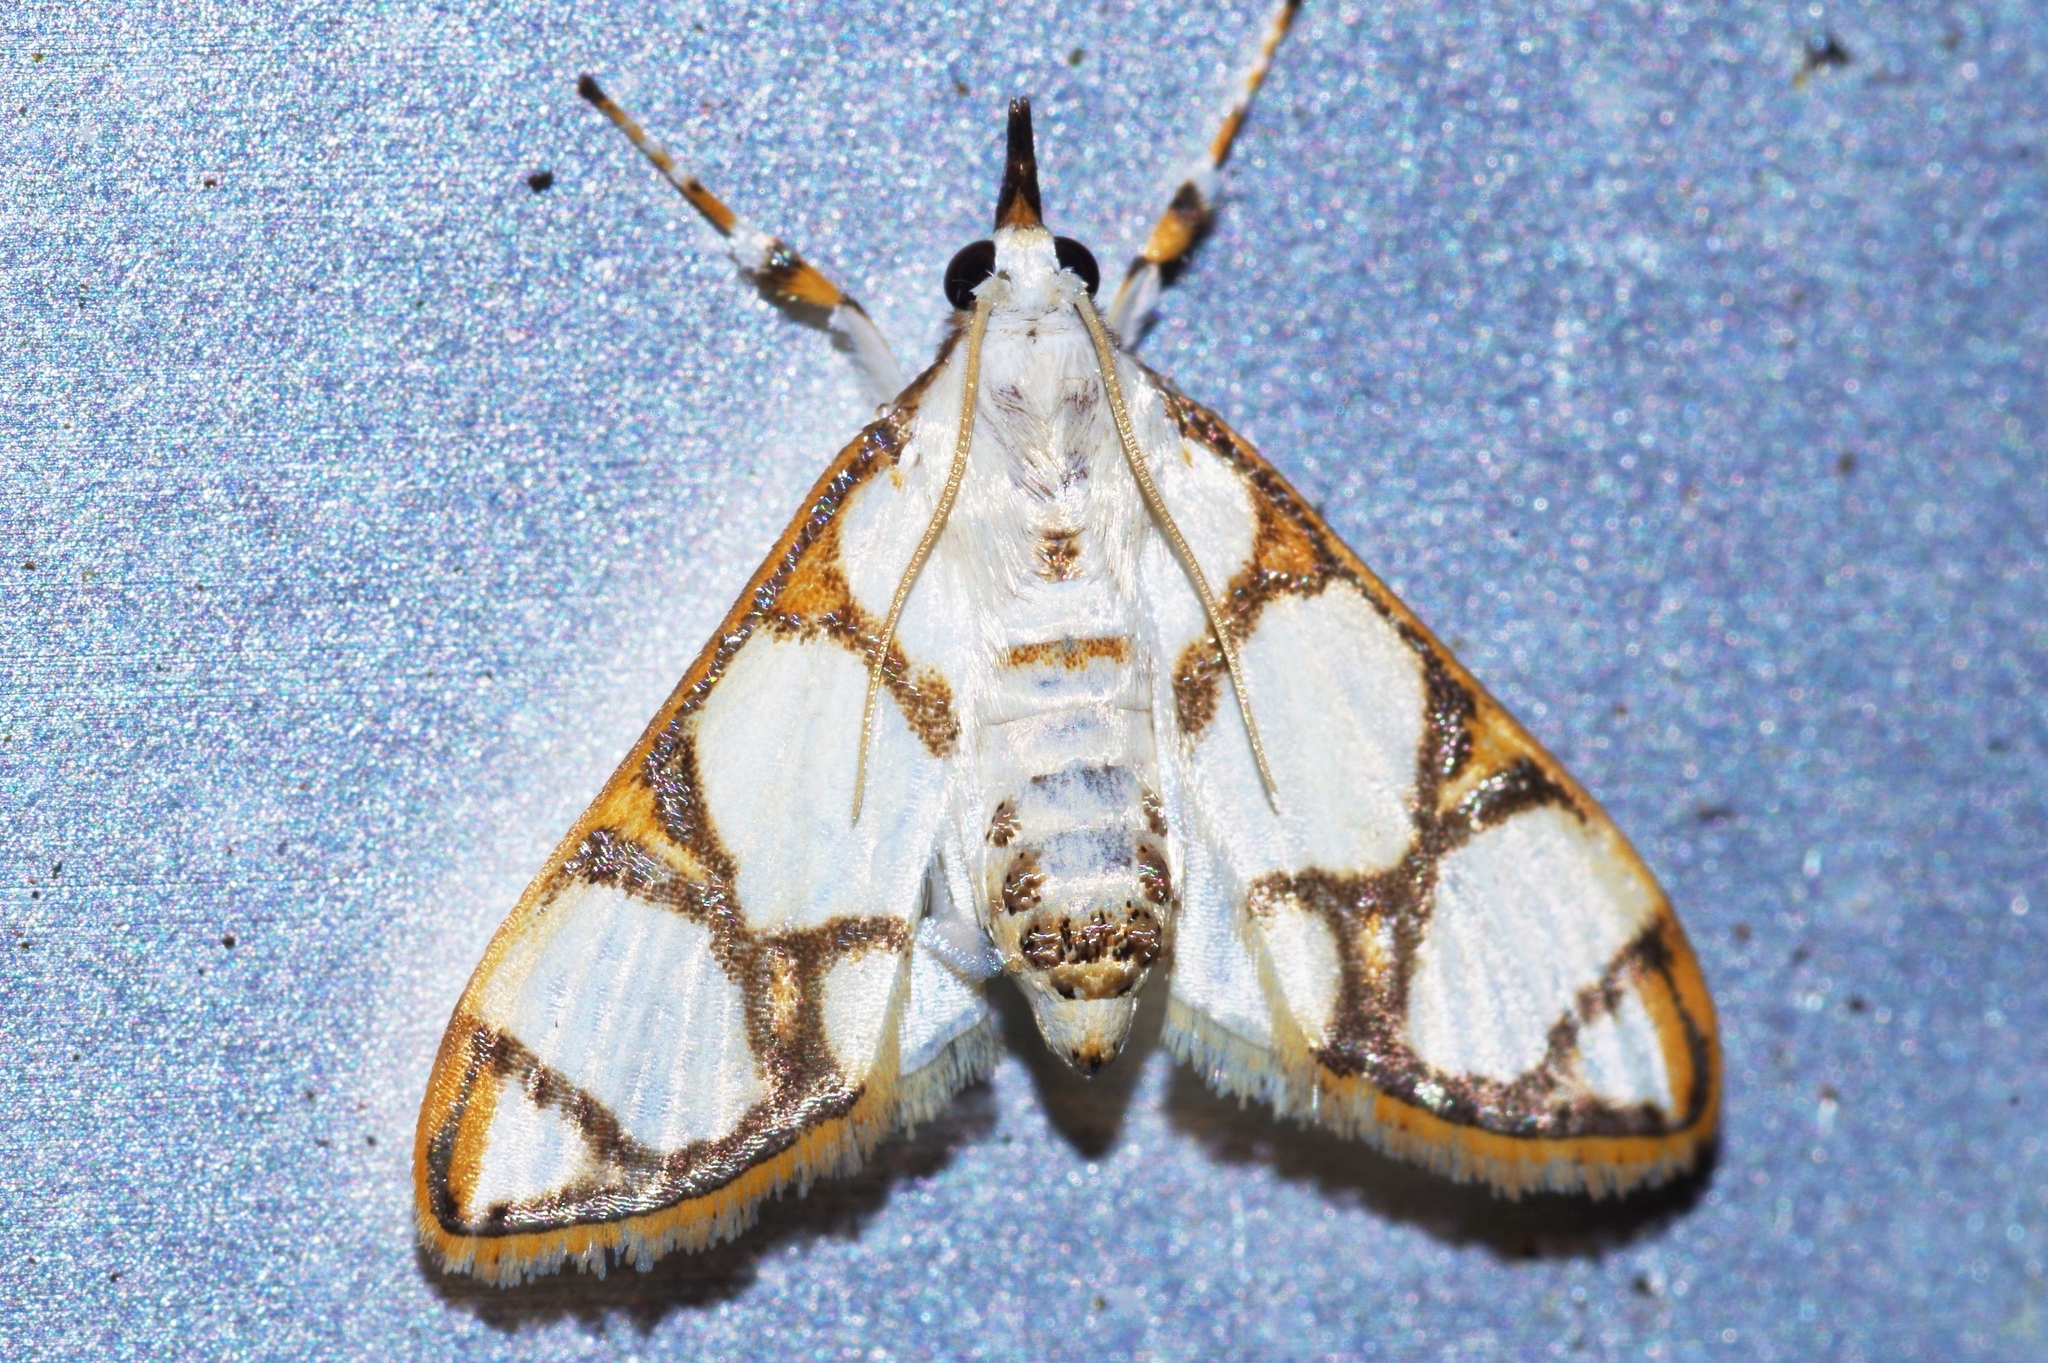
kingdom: Animalia
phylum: Arthropoda
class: Insecta
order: Lepidoptera
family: Crambidae
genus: Cirrhochrista
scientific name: Cirrhochrista kosemponialis
